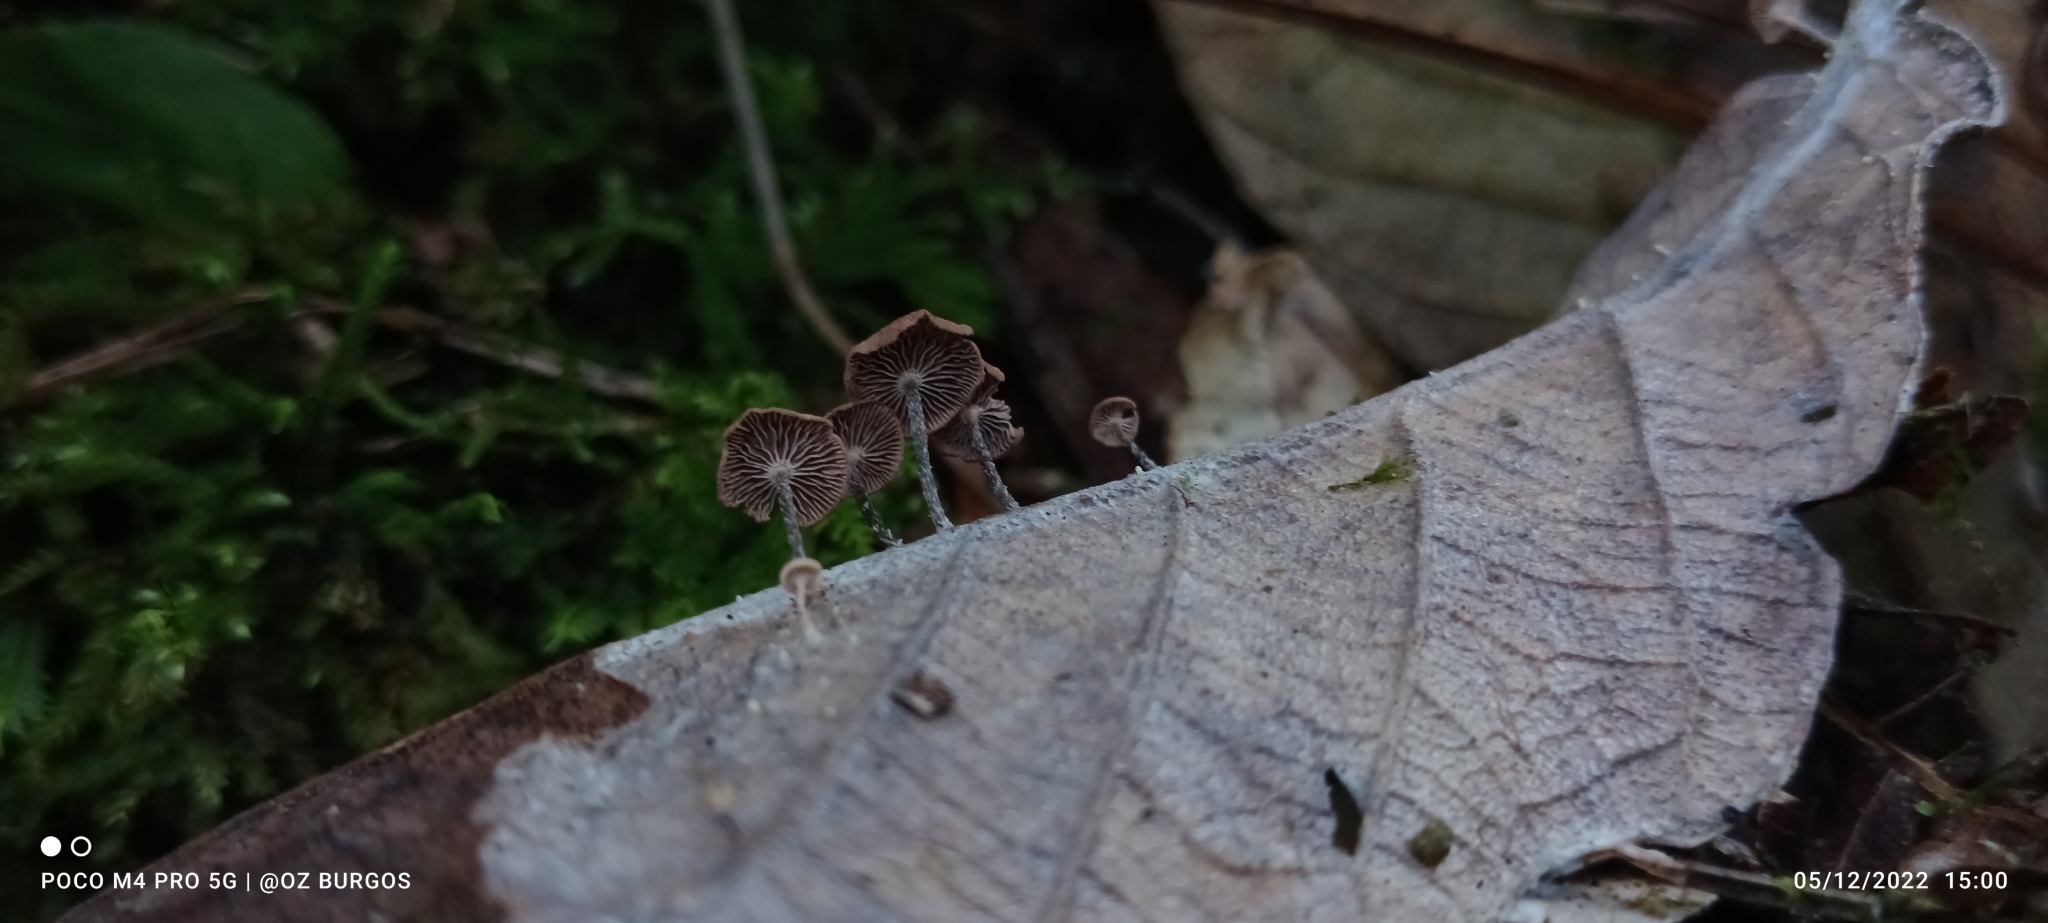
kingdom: Fungi
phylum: Basidiomycota
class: Agaricomycetes
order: Agaricales
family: Omphalotaceae
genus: Gymnopus
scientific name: Gymnopus androsaceus
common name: Horse-hair fungus
